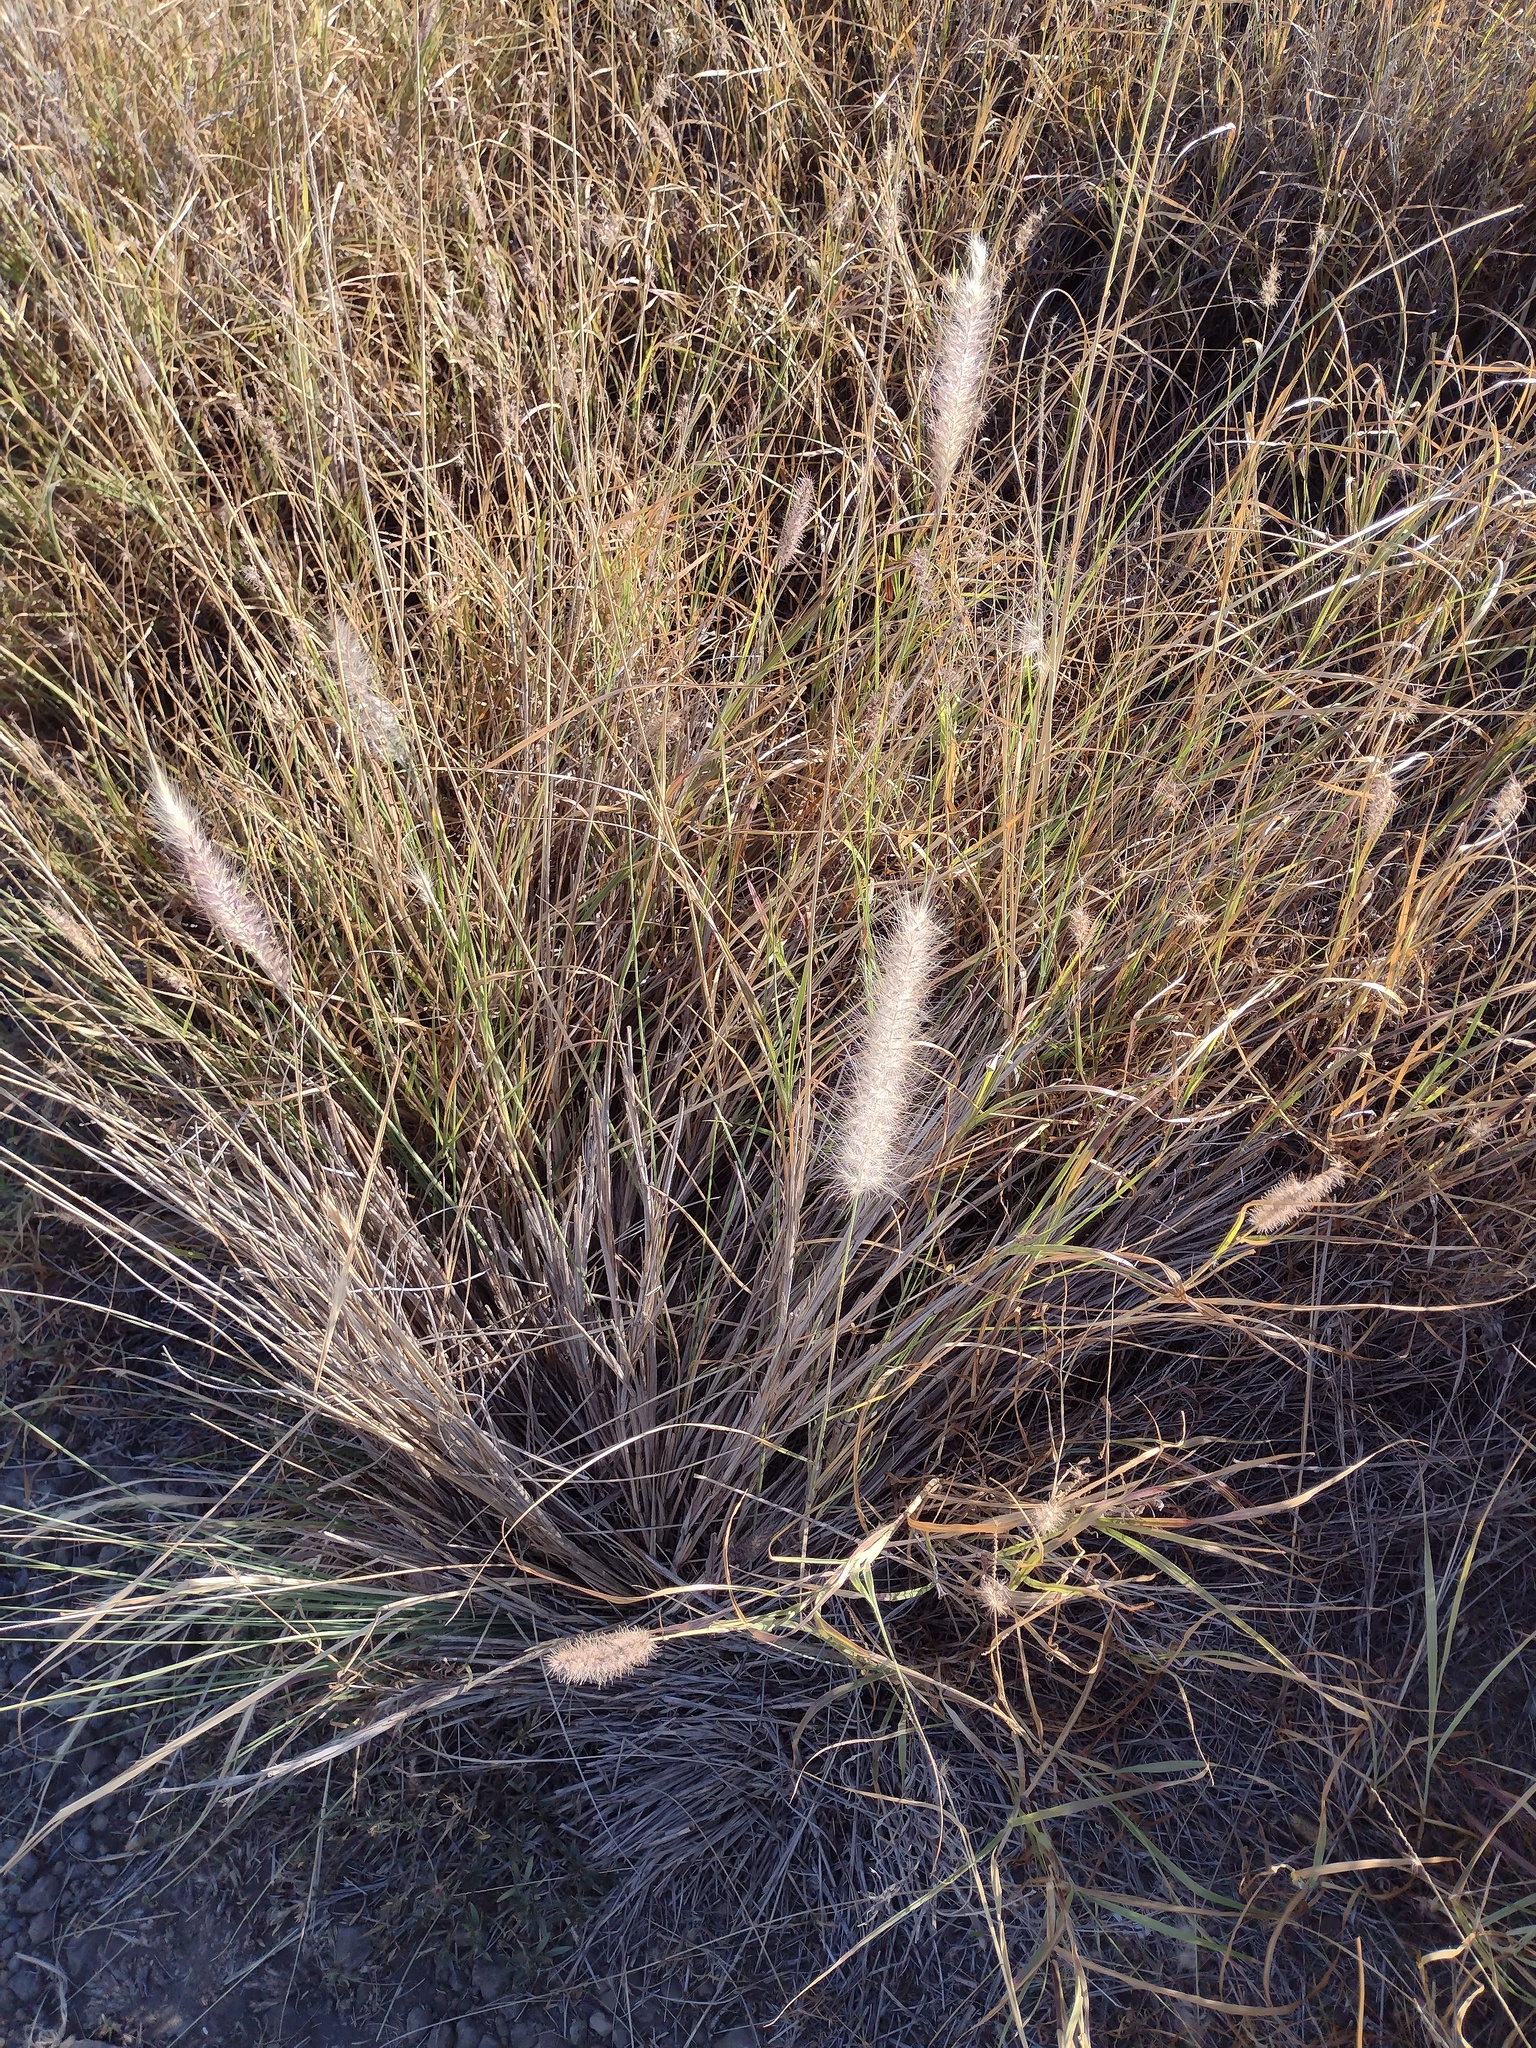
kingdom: Plantae
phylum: Tracheophyta
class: Liliopsida
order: Poales
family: Poaceae
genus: Cenchrus
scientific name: Cenchrus setaceus
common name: Crimson fountaingrass
